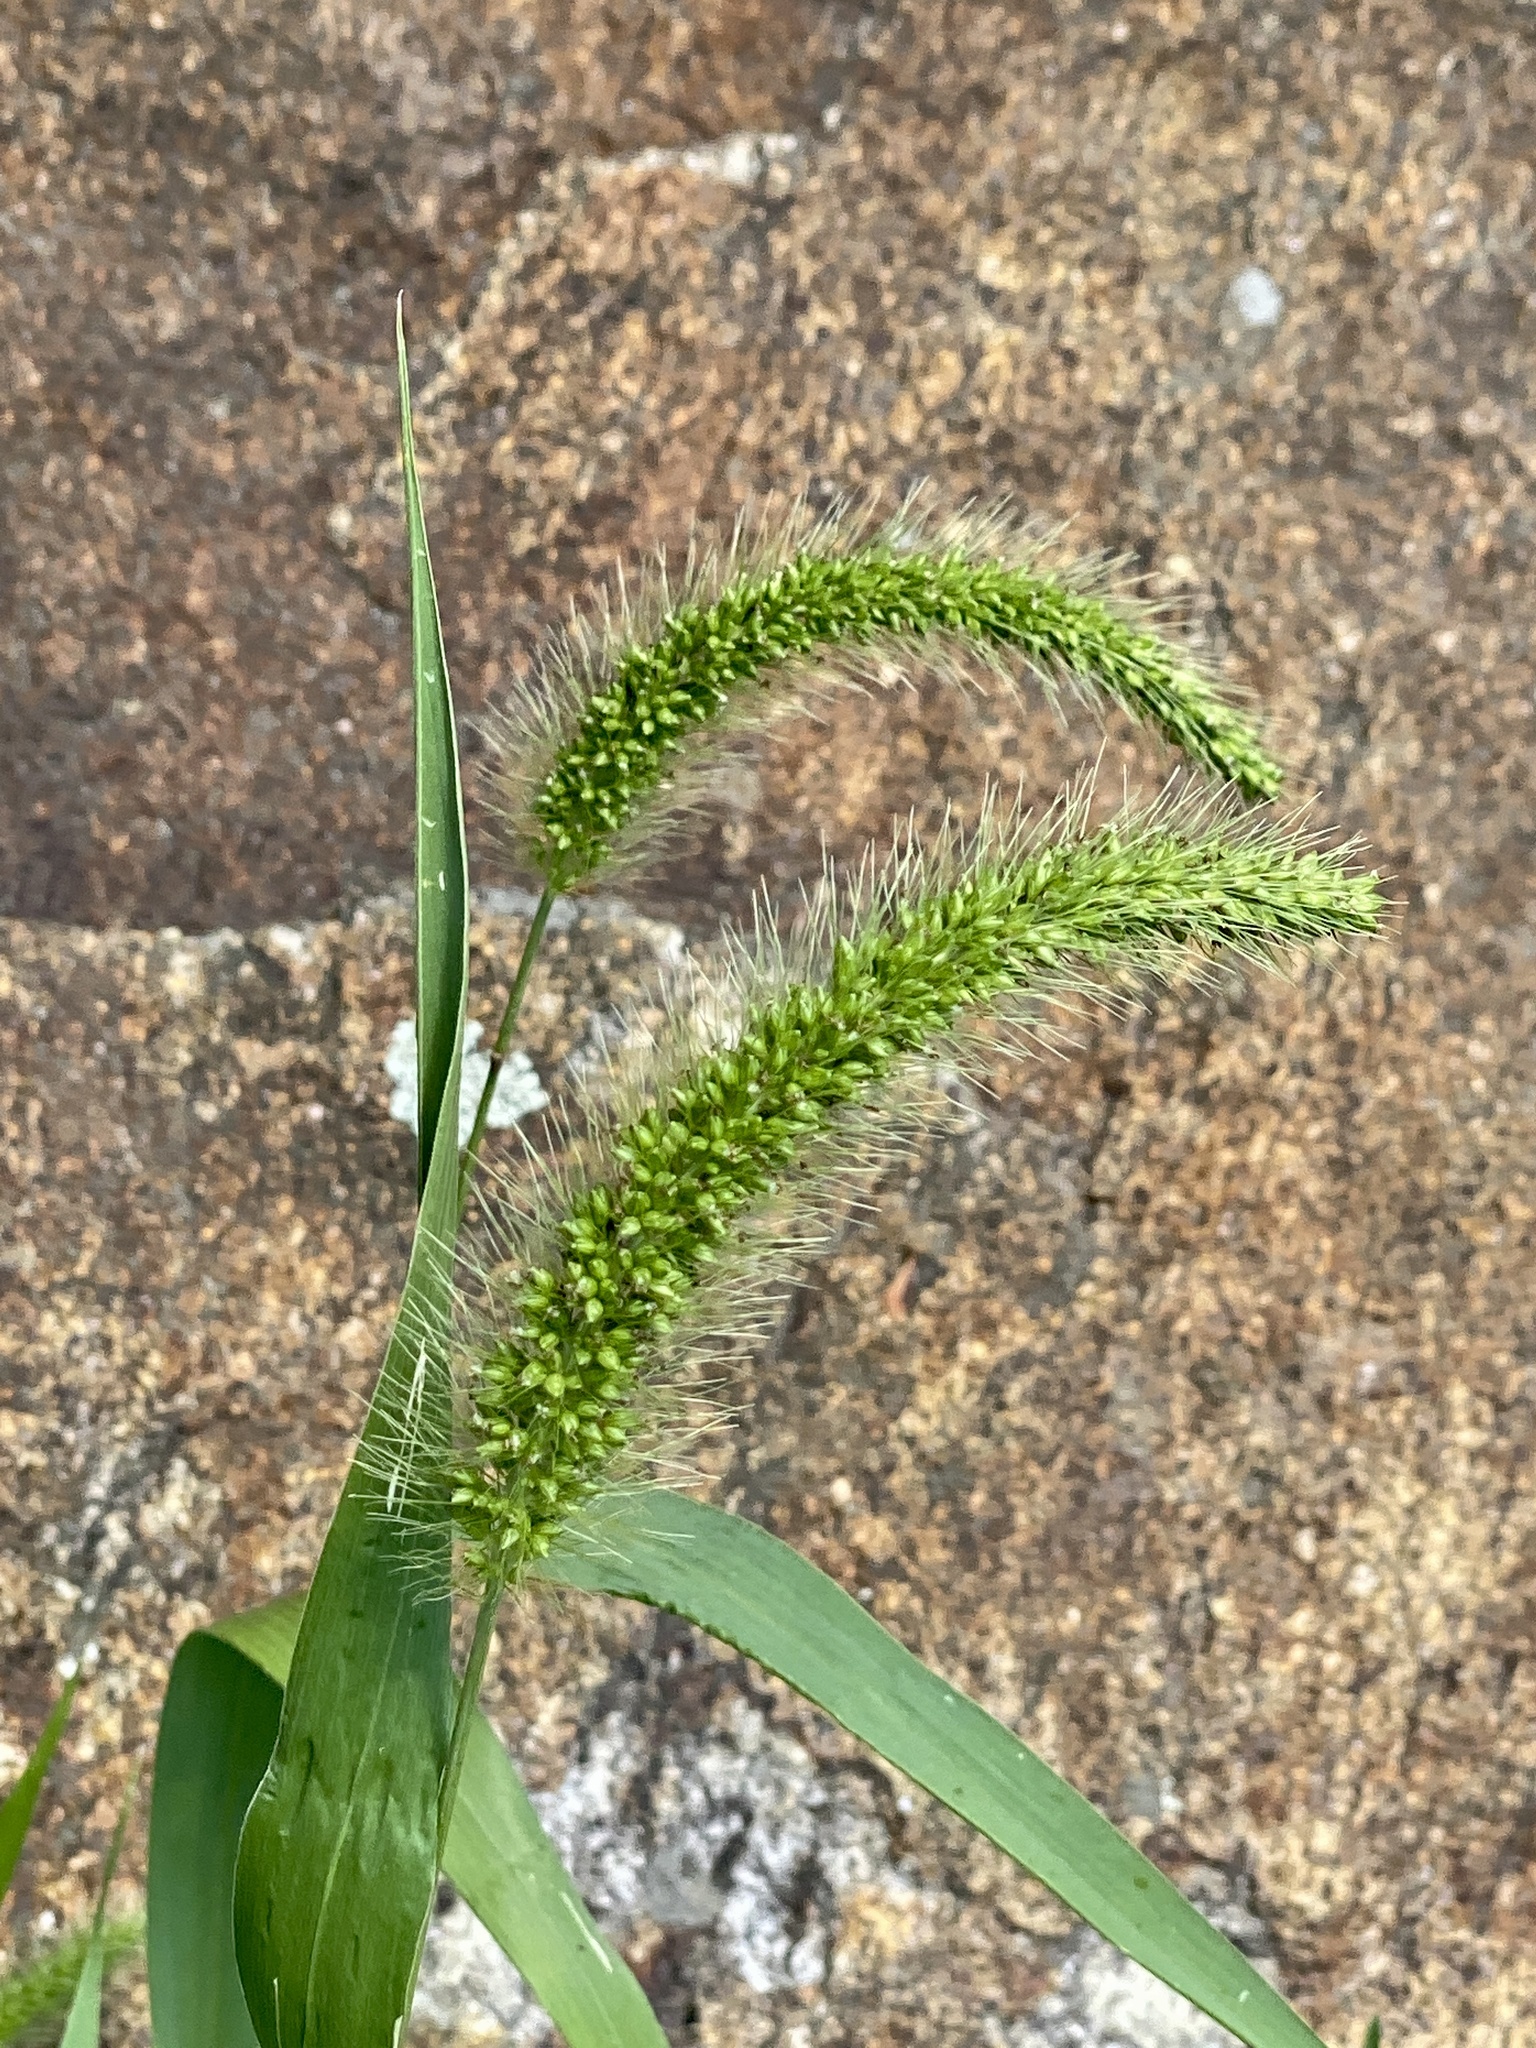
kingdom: Plantae
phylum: Tracheophyta
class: Liliopsida
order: Poales
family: Poaceae
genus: Setaria
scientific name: Setaria faberi
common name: Nodding bristle-grass
